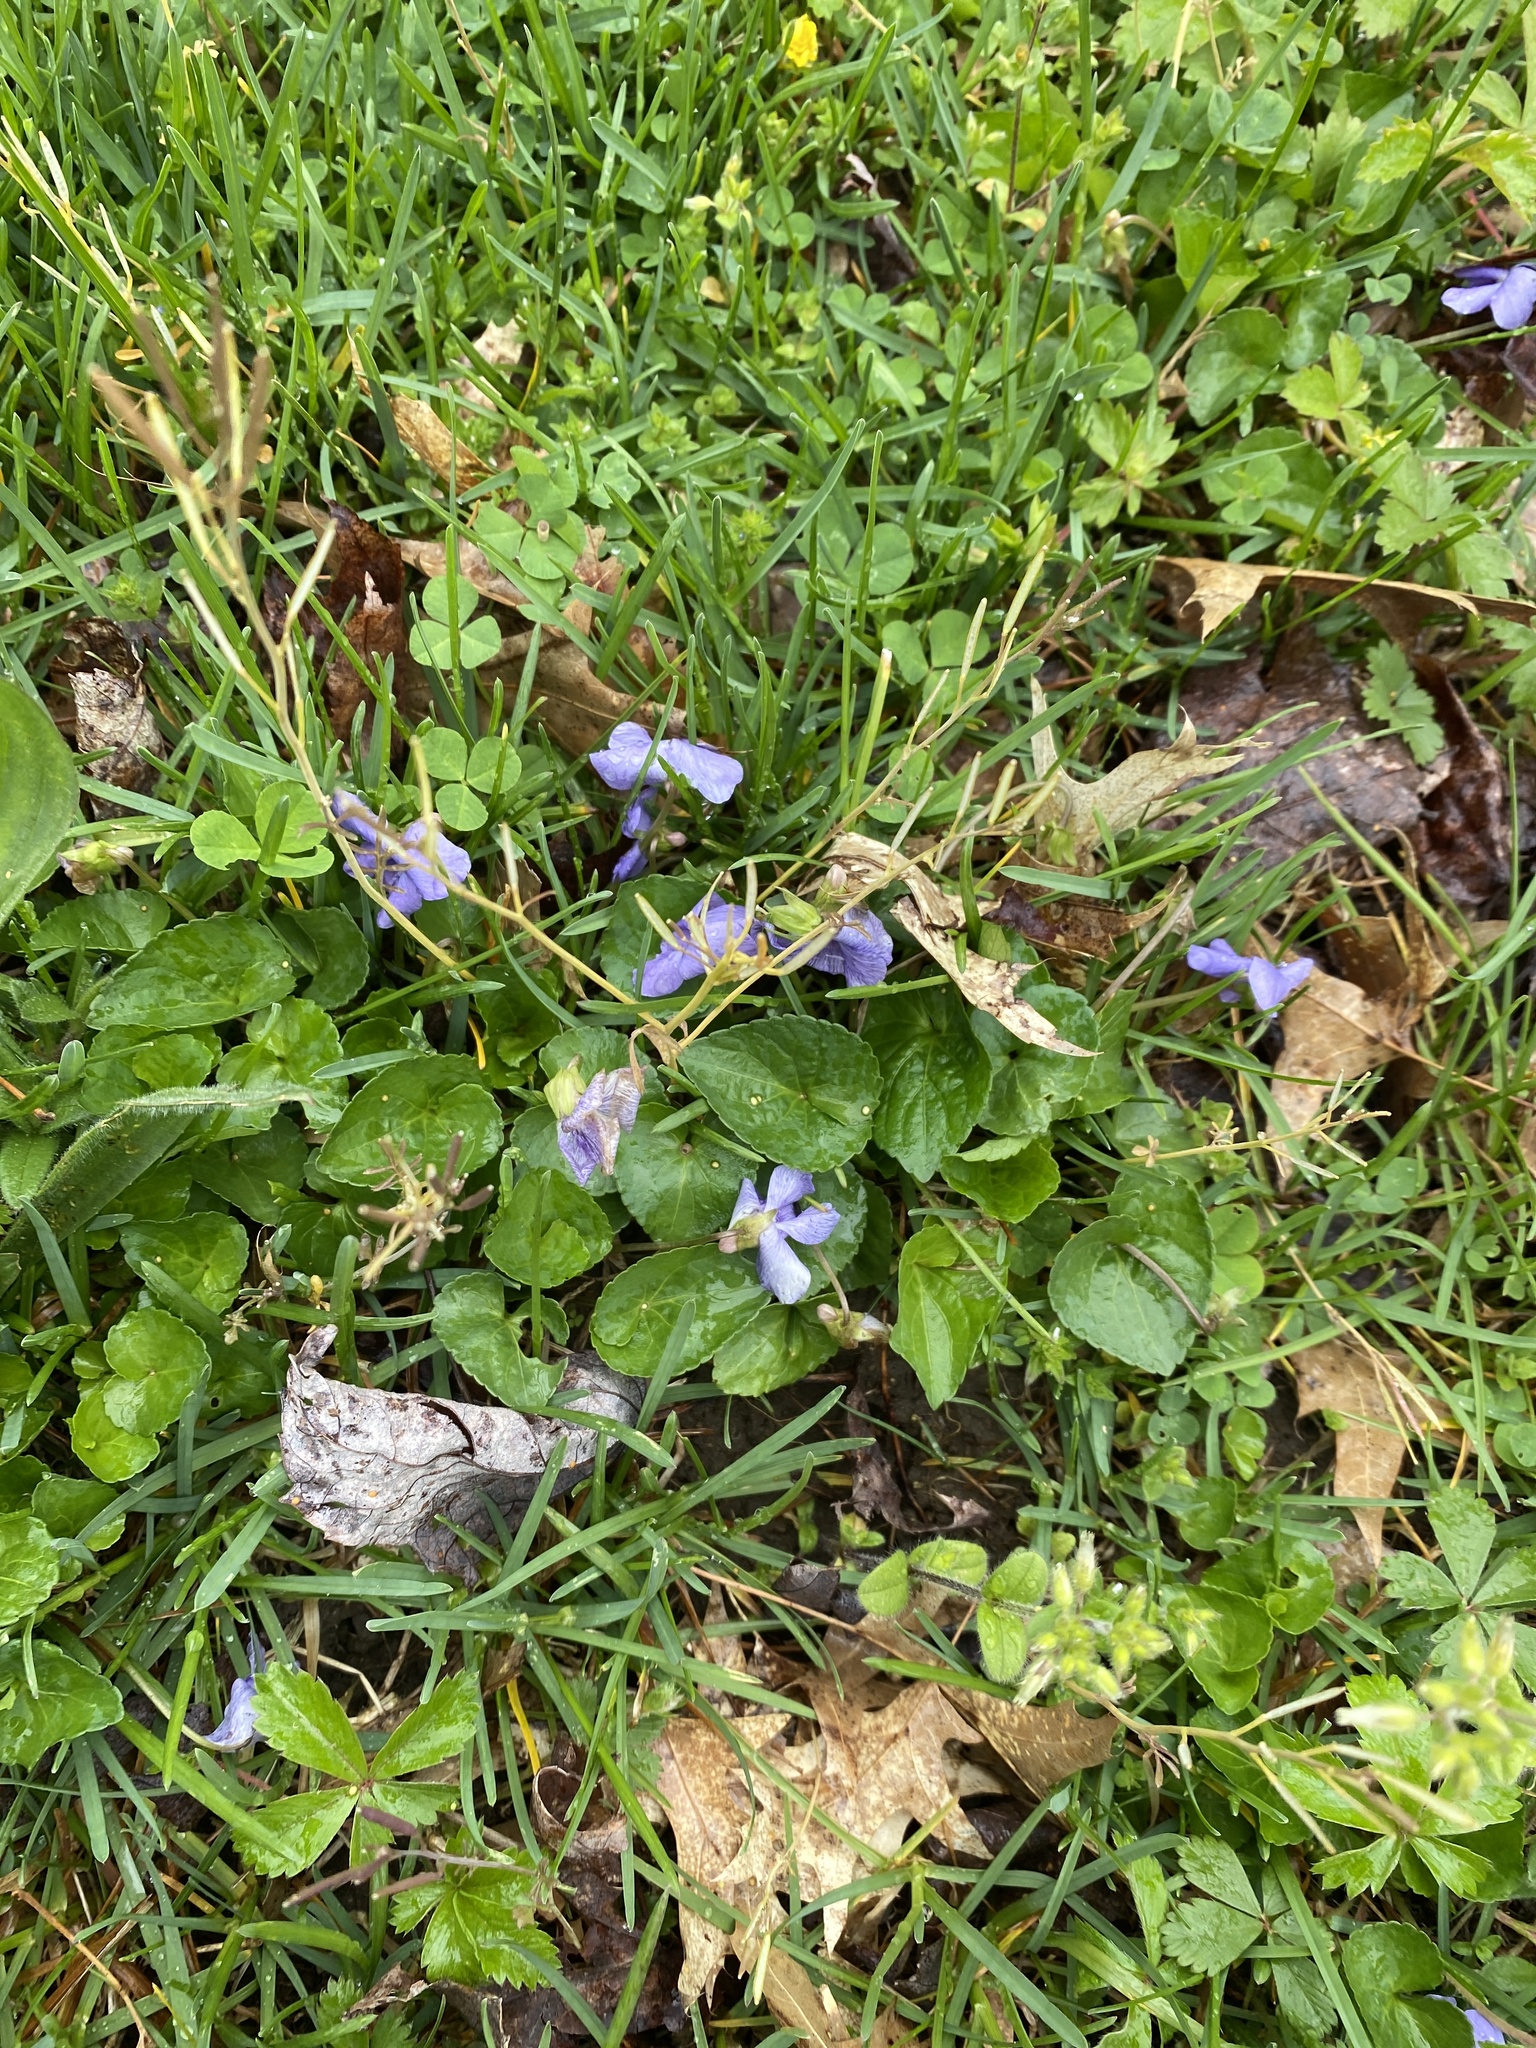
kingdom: Plantae
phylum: Tracheophyta
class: Magnoliopsida
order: Malpighiales
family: Violaceae
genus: Viola
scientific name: Viola sororia
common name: Dooryard violet
